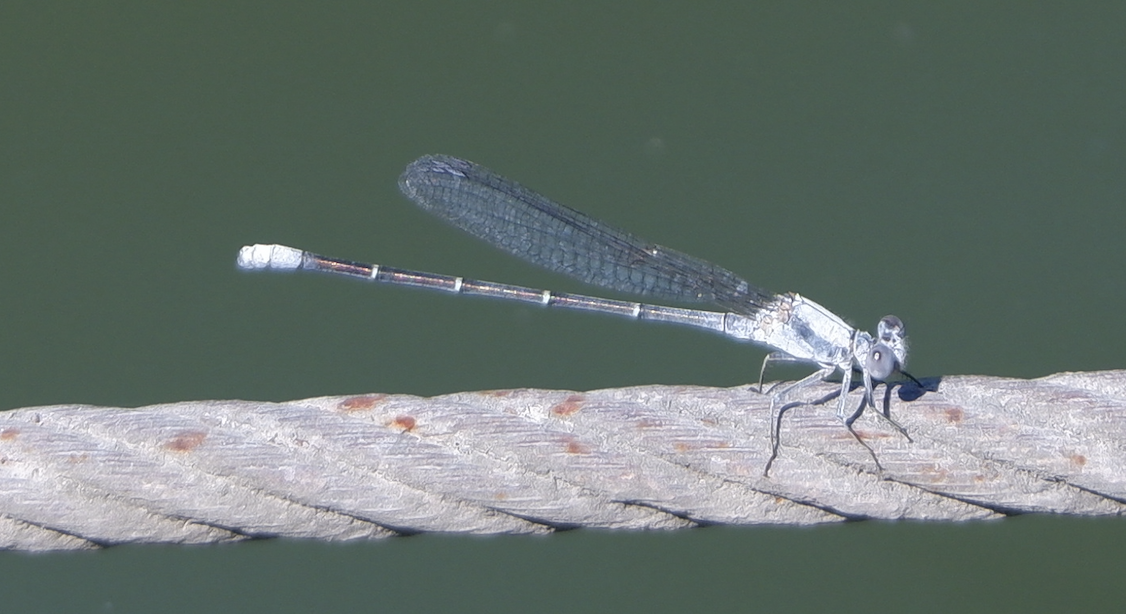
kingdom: Animalia
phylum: Arthropoda
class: Insecta
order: Odonata
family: Coenagrionidae
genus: Argia
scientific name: Argia moesta
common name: Powdered dancer
